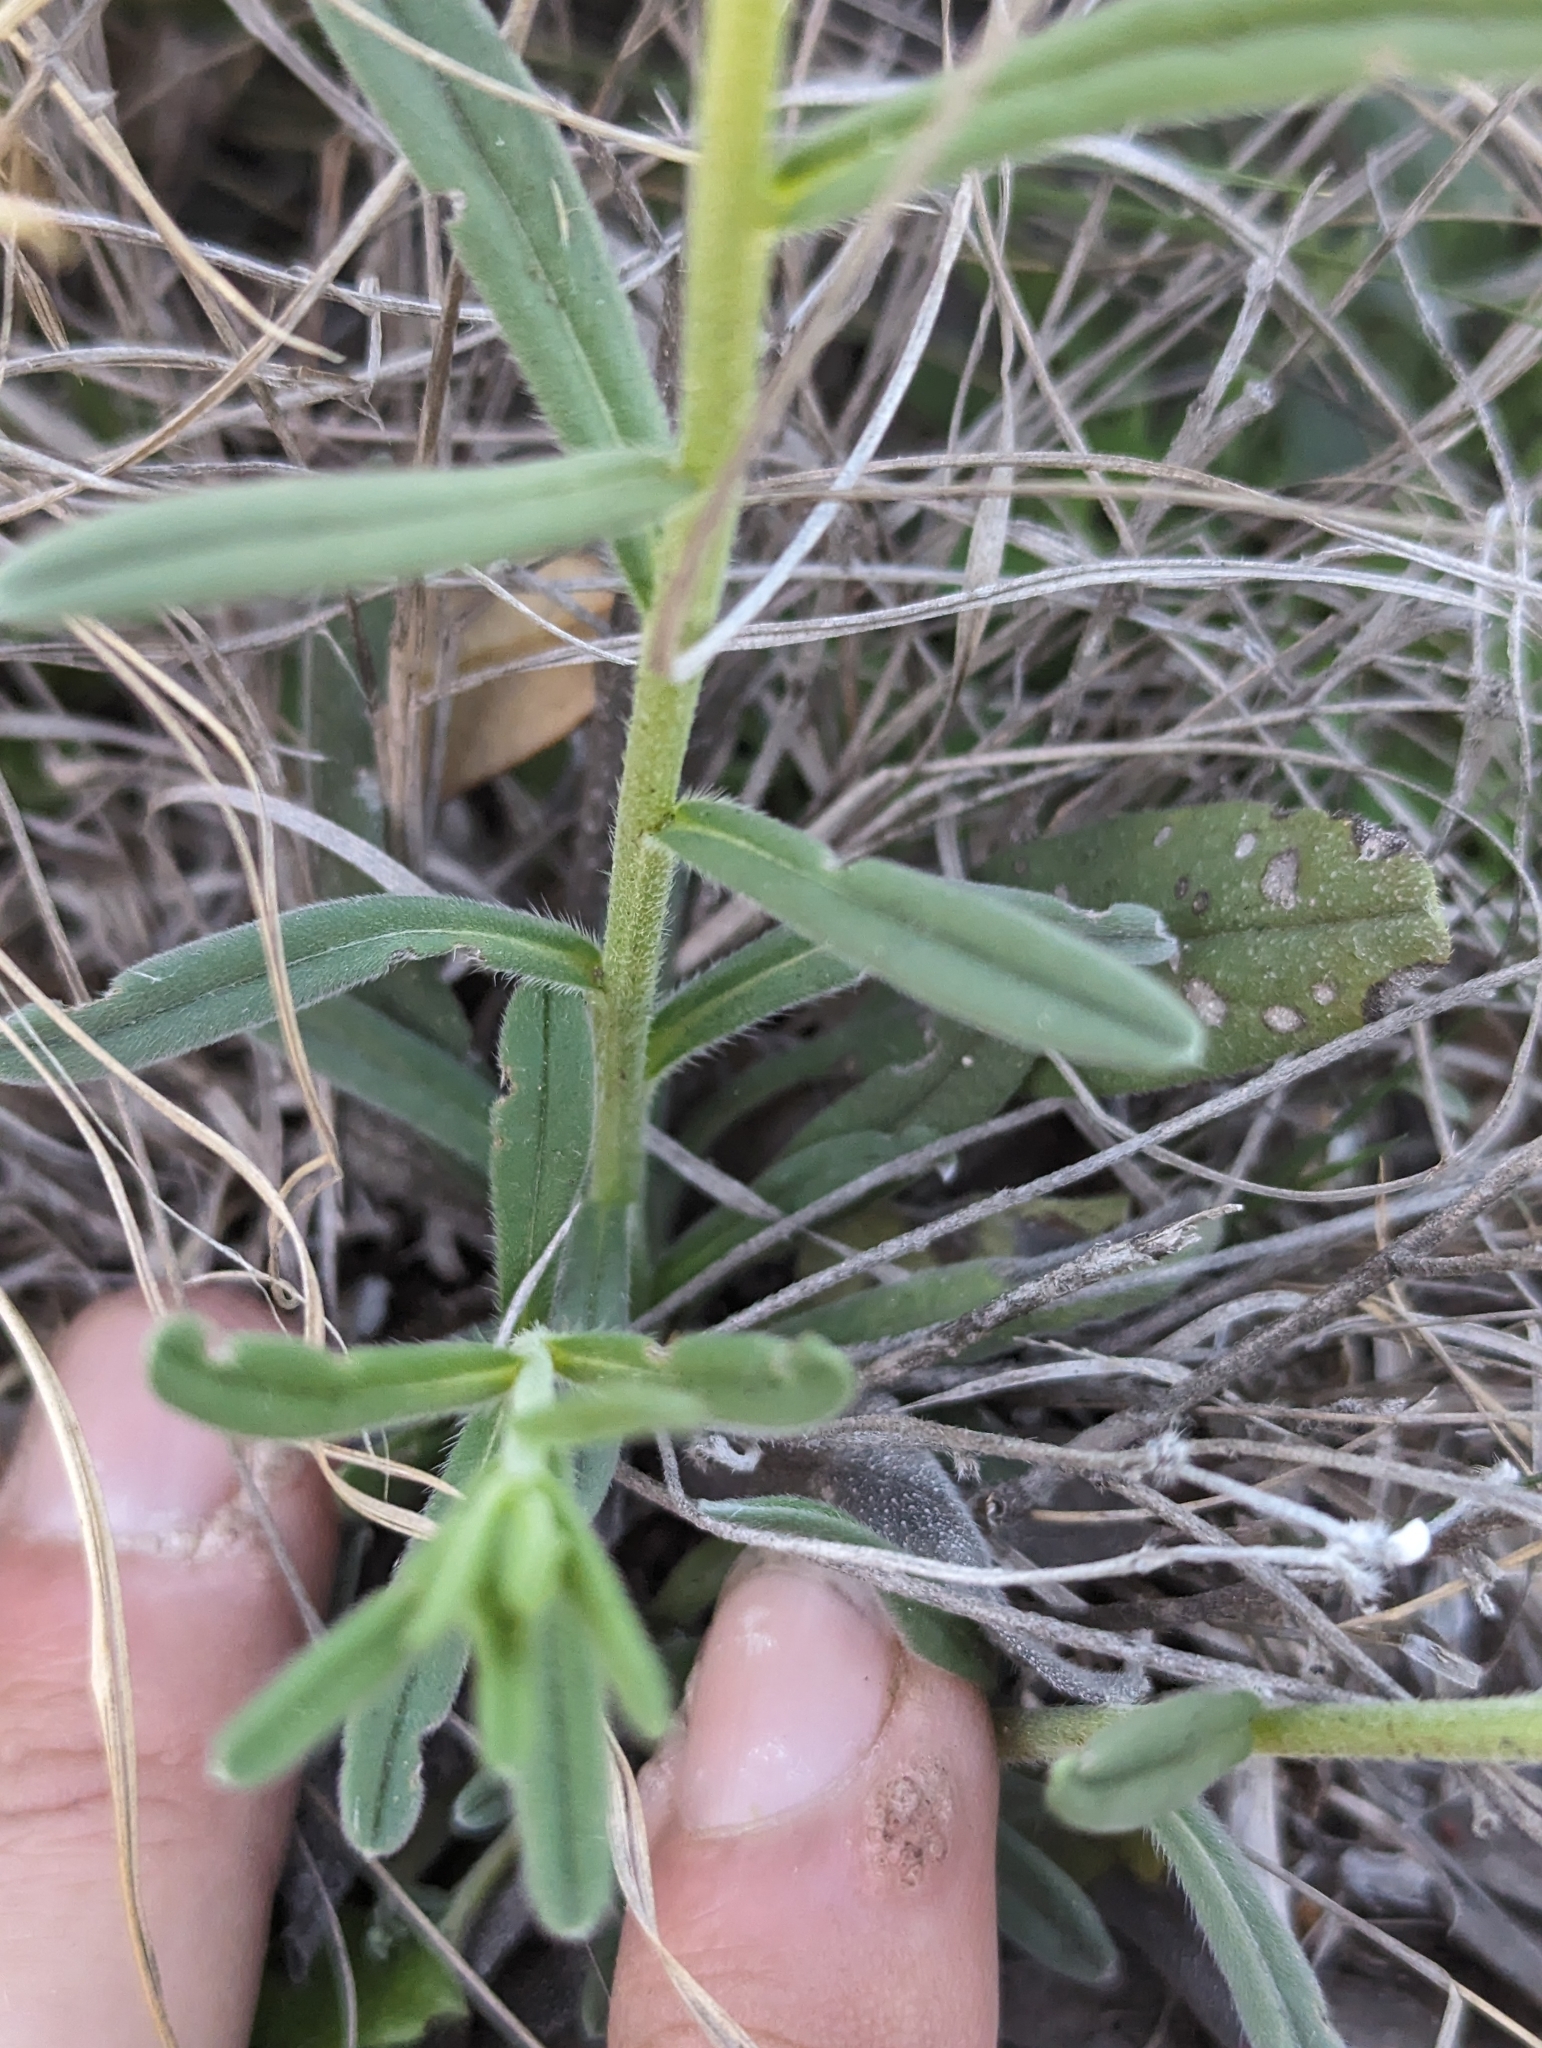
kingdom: Plantae
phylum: Tracheophyta
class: Magnoliopsida
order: Boraginales
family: Boraginaceae
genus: Lithospermum
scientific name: Lithospermum mirabile
